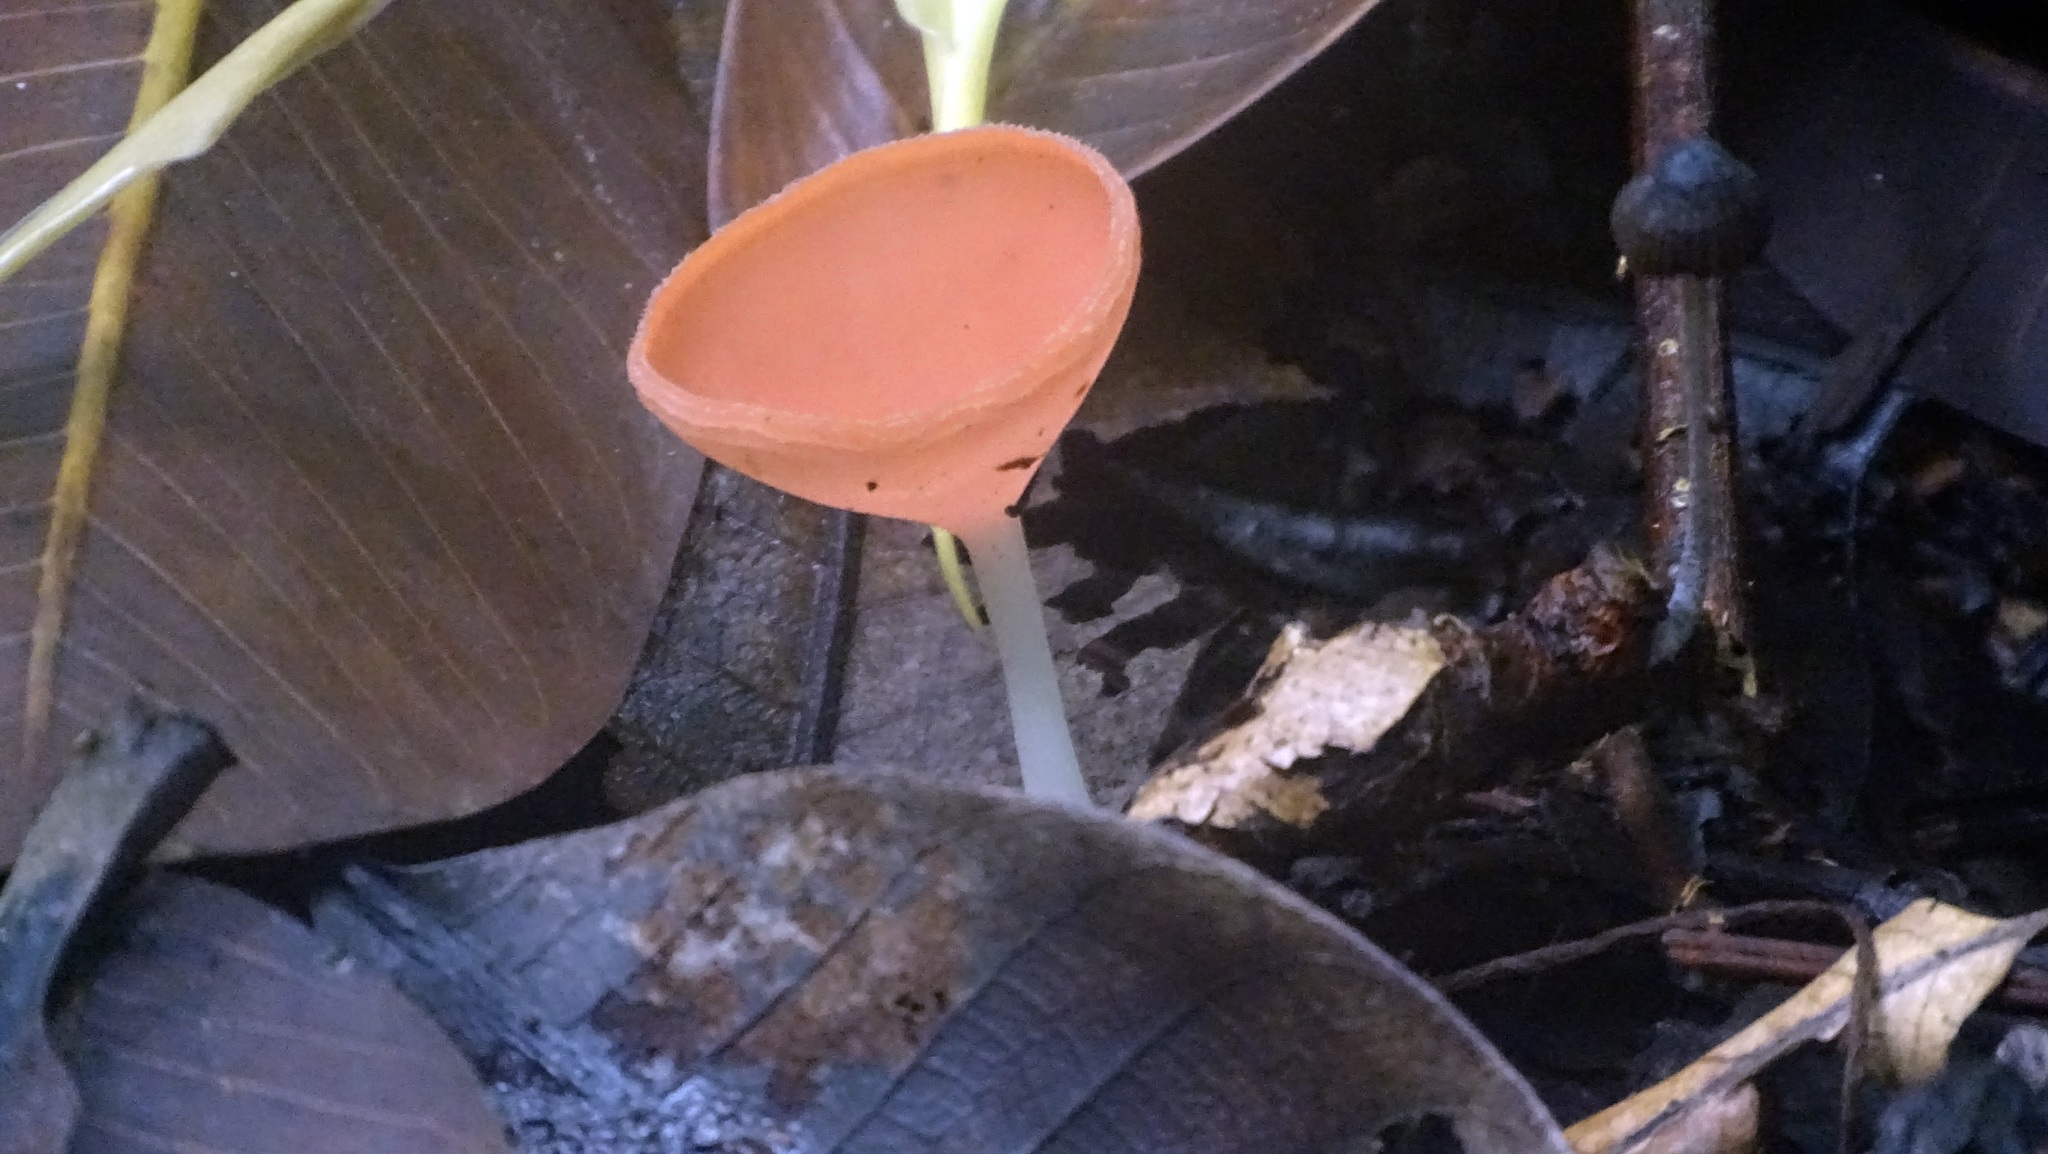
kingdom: Fungi
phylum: Ascomycota
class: Pezizomycetes
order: Pezizales
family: Sarcoscyphaceae
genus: Cookeina
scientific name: Cookeina speciosa
